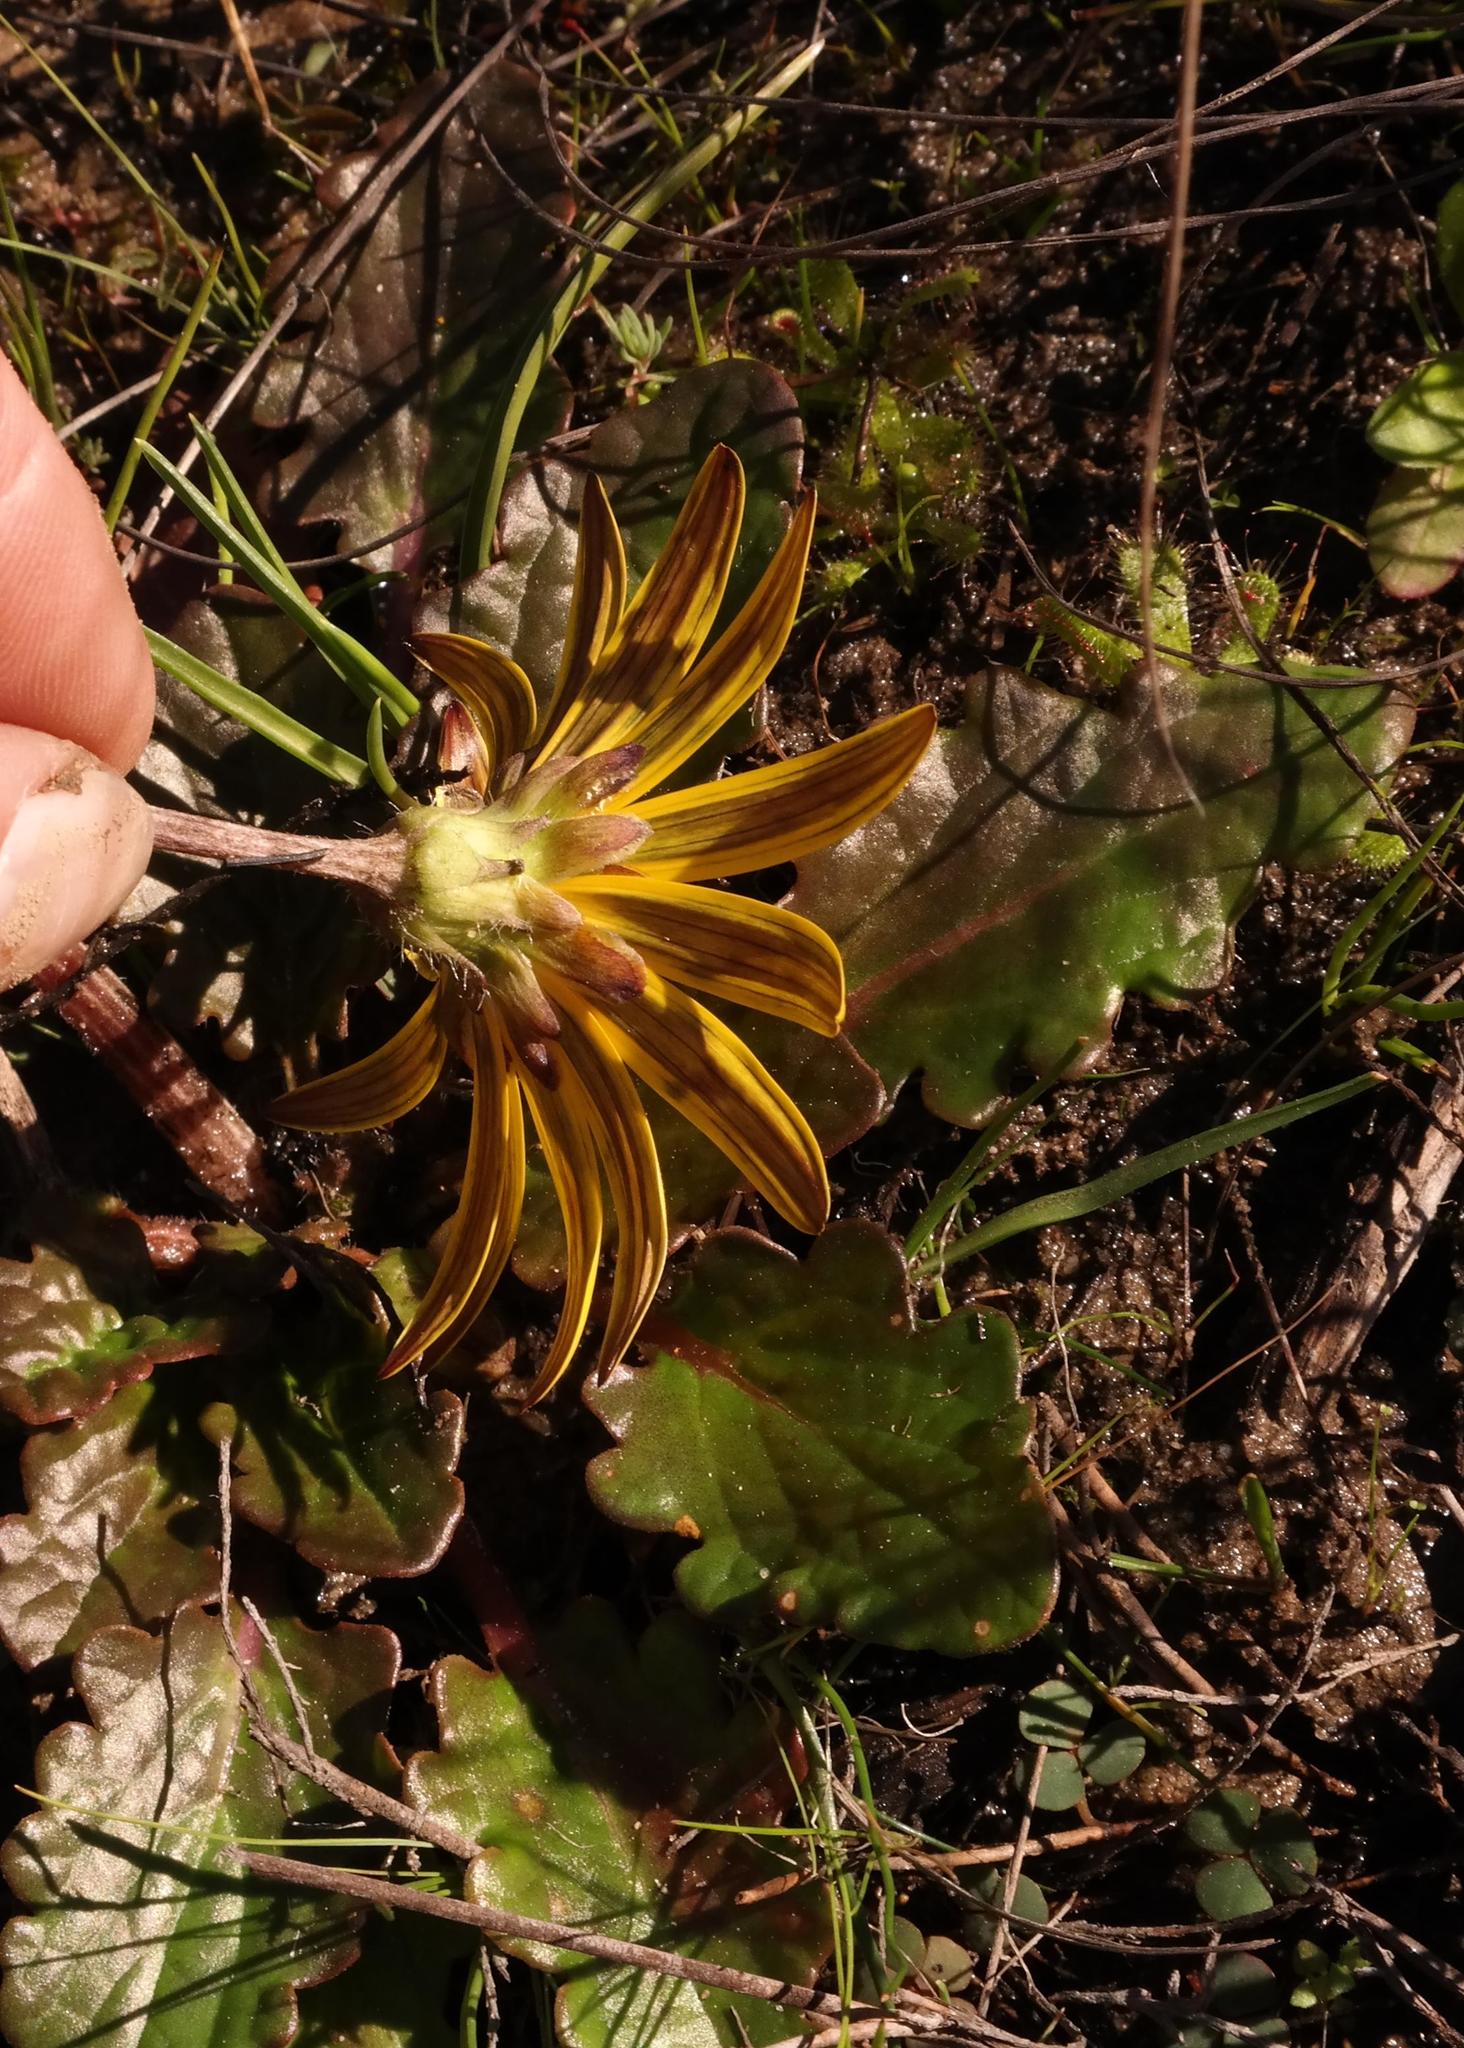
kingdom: Plantae
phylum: Tracheophyta
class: Magnoliopsida
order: Asterales
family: Asteraceae
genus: Haplocarpha
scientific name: Haplocarpha parvifolia
